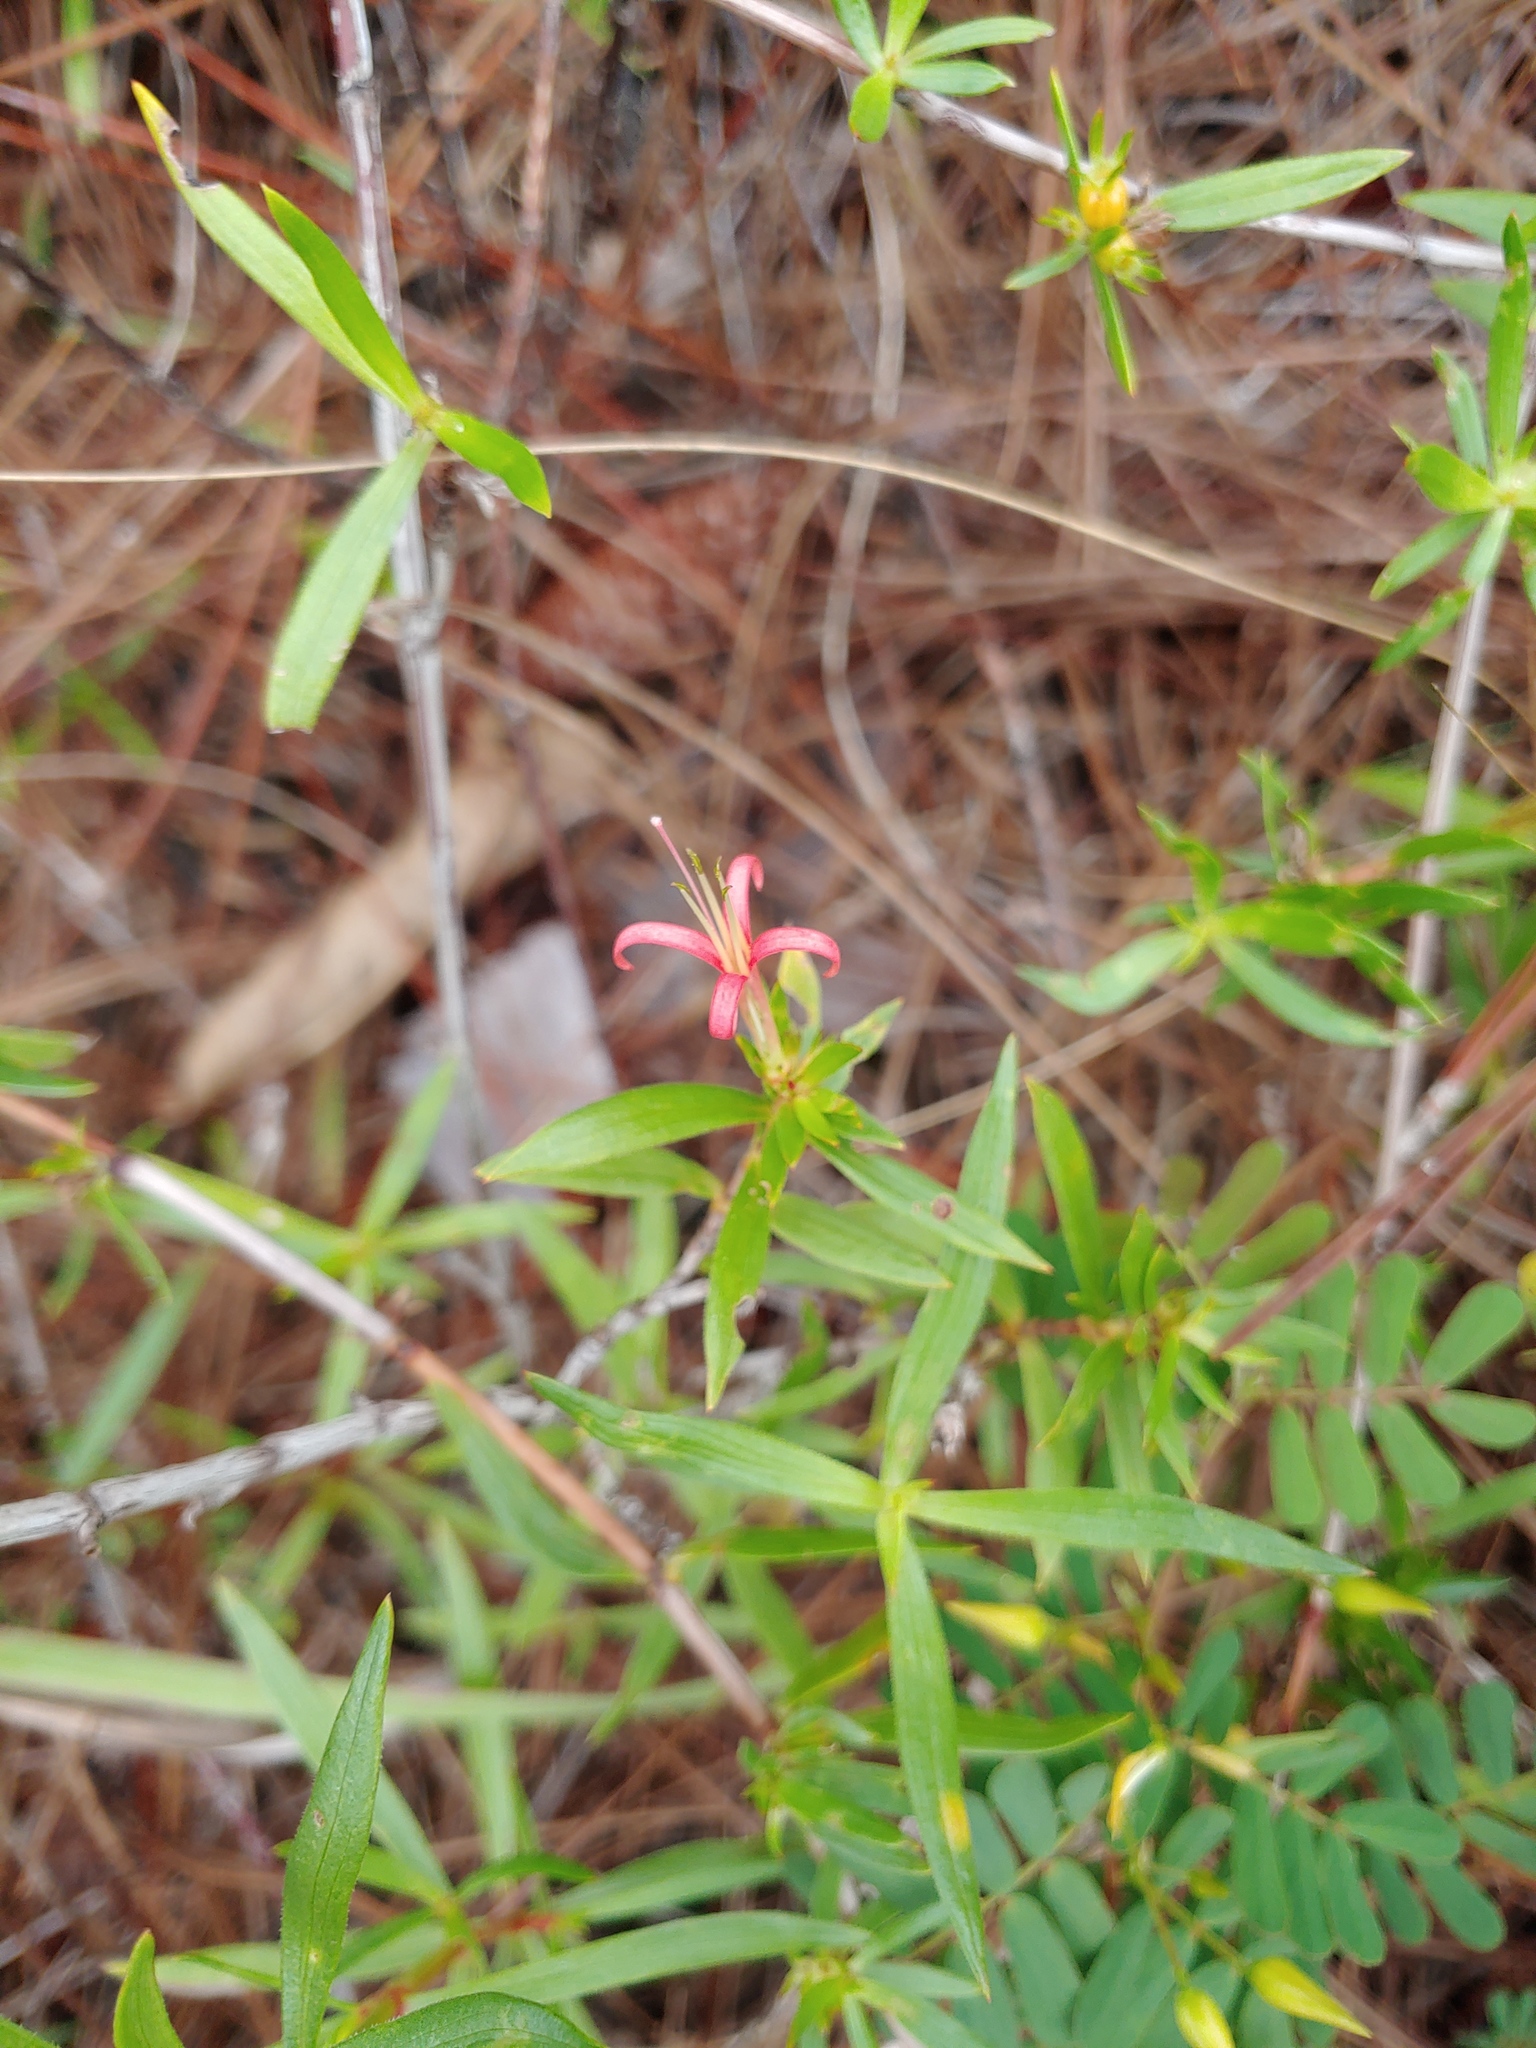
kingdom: Plantae
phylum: Tracheophyta
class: Magnoliopsida
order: Gentianales
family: Rubiaceae
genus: Ernodea
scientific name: Ernodea littoralis
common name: Beach creeper
